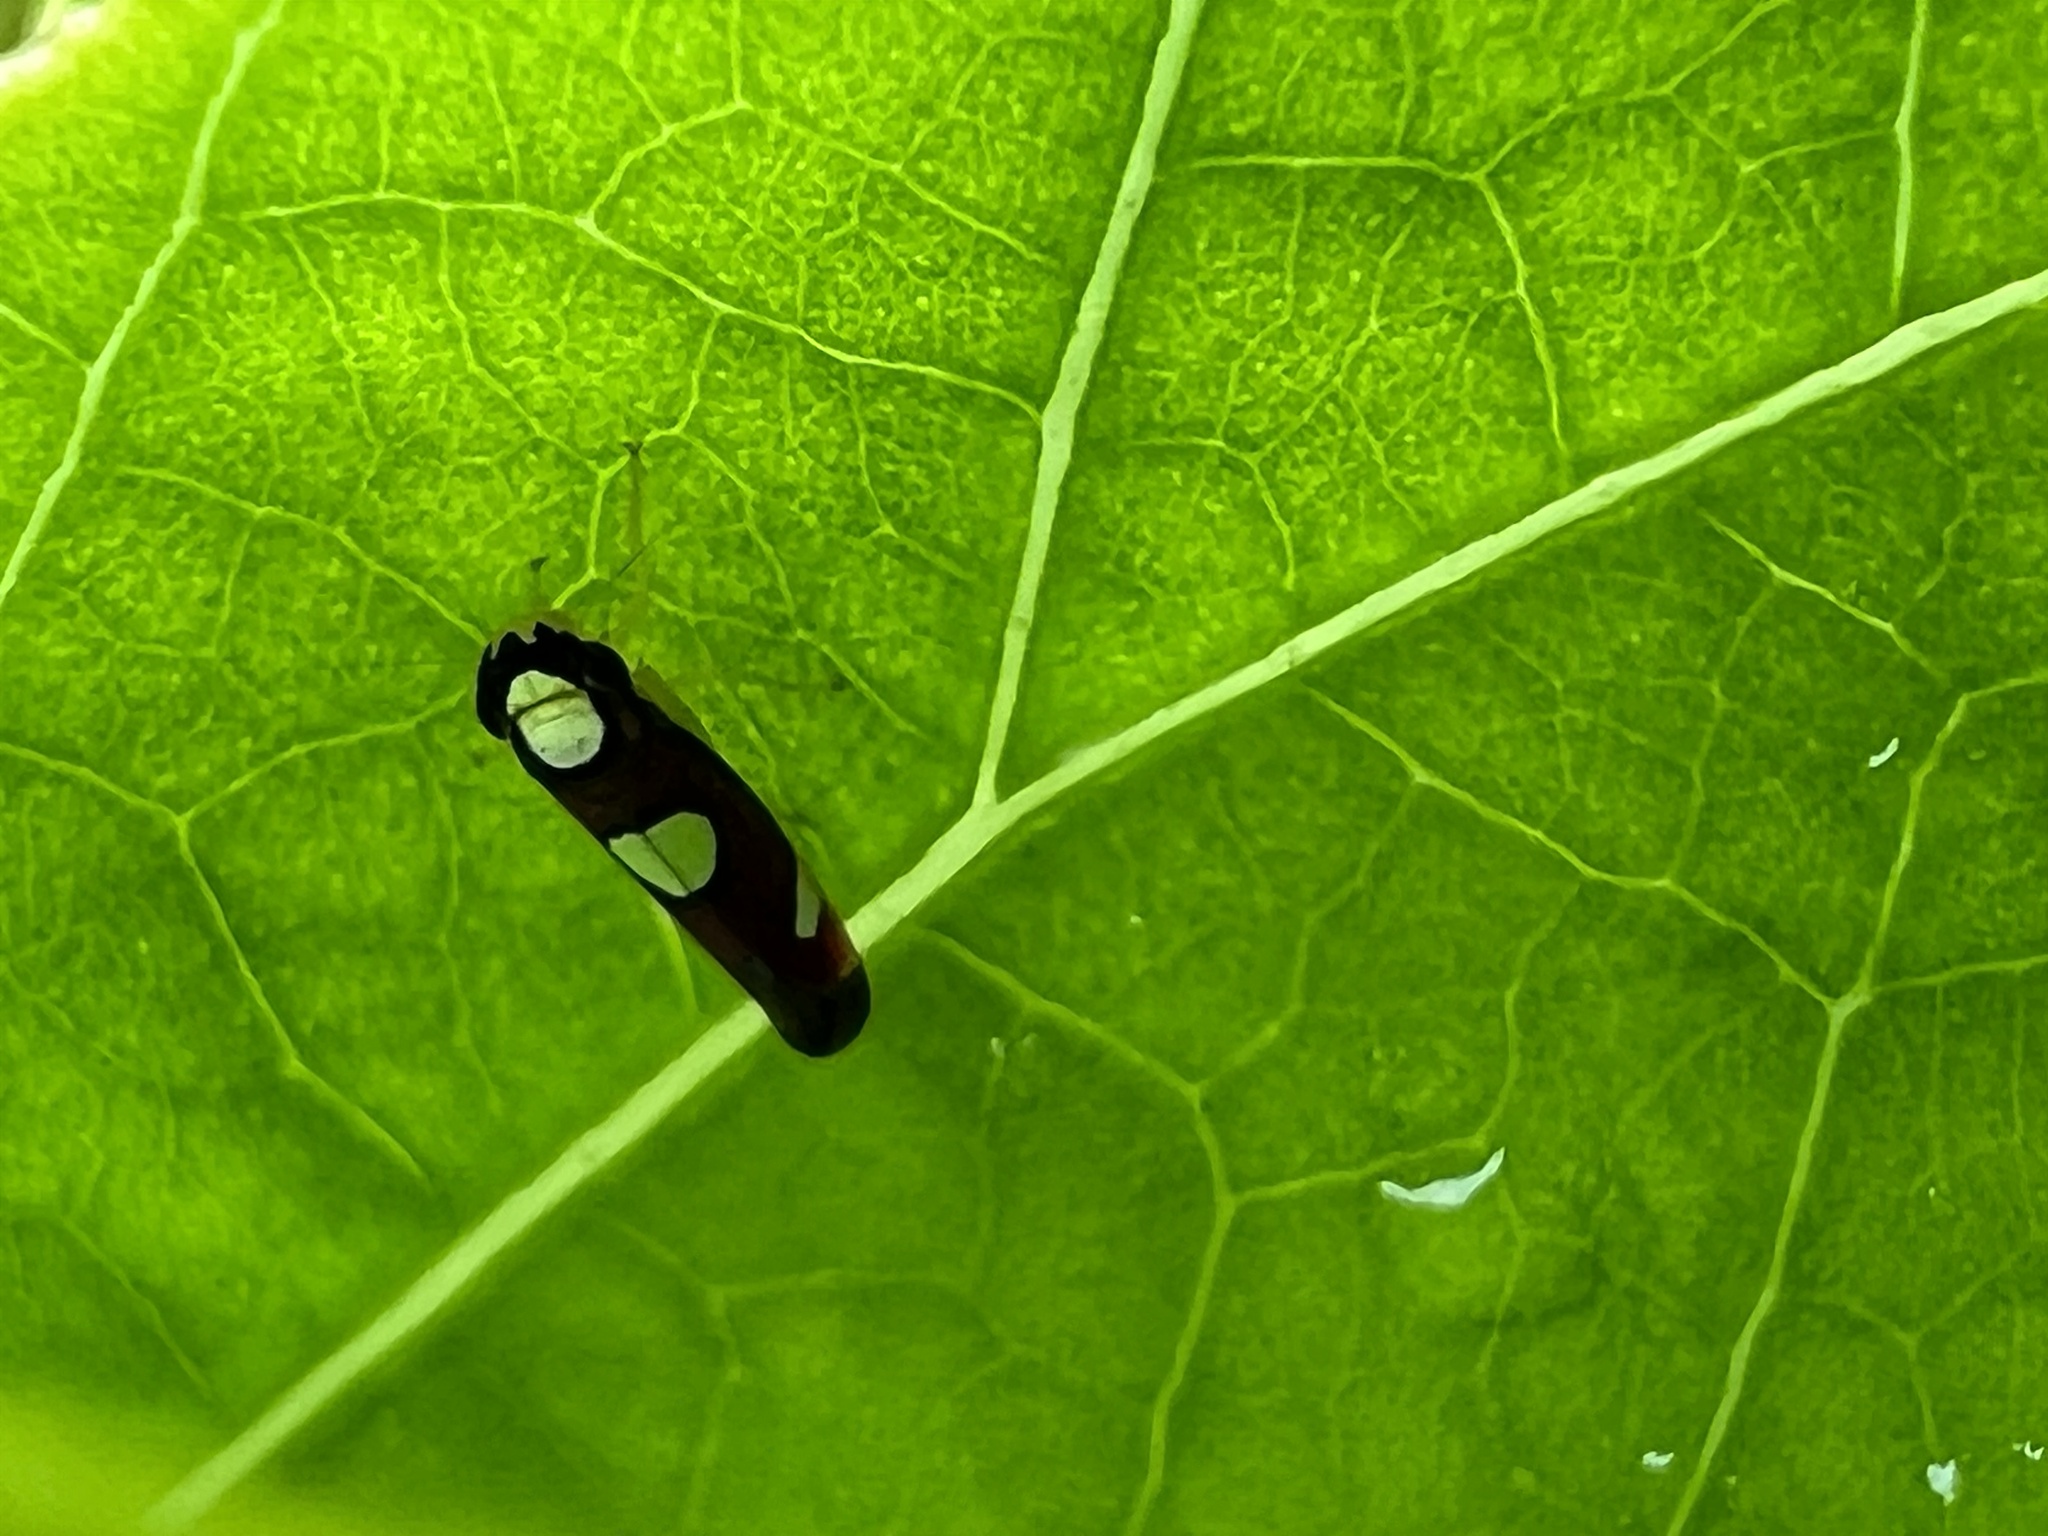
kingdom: Animalia
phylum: Arthropoda
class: Insecta
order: Hemiptera
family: Cicadellidae
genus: Erythrogonia
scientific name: Erythrogonia quadriplagiata
